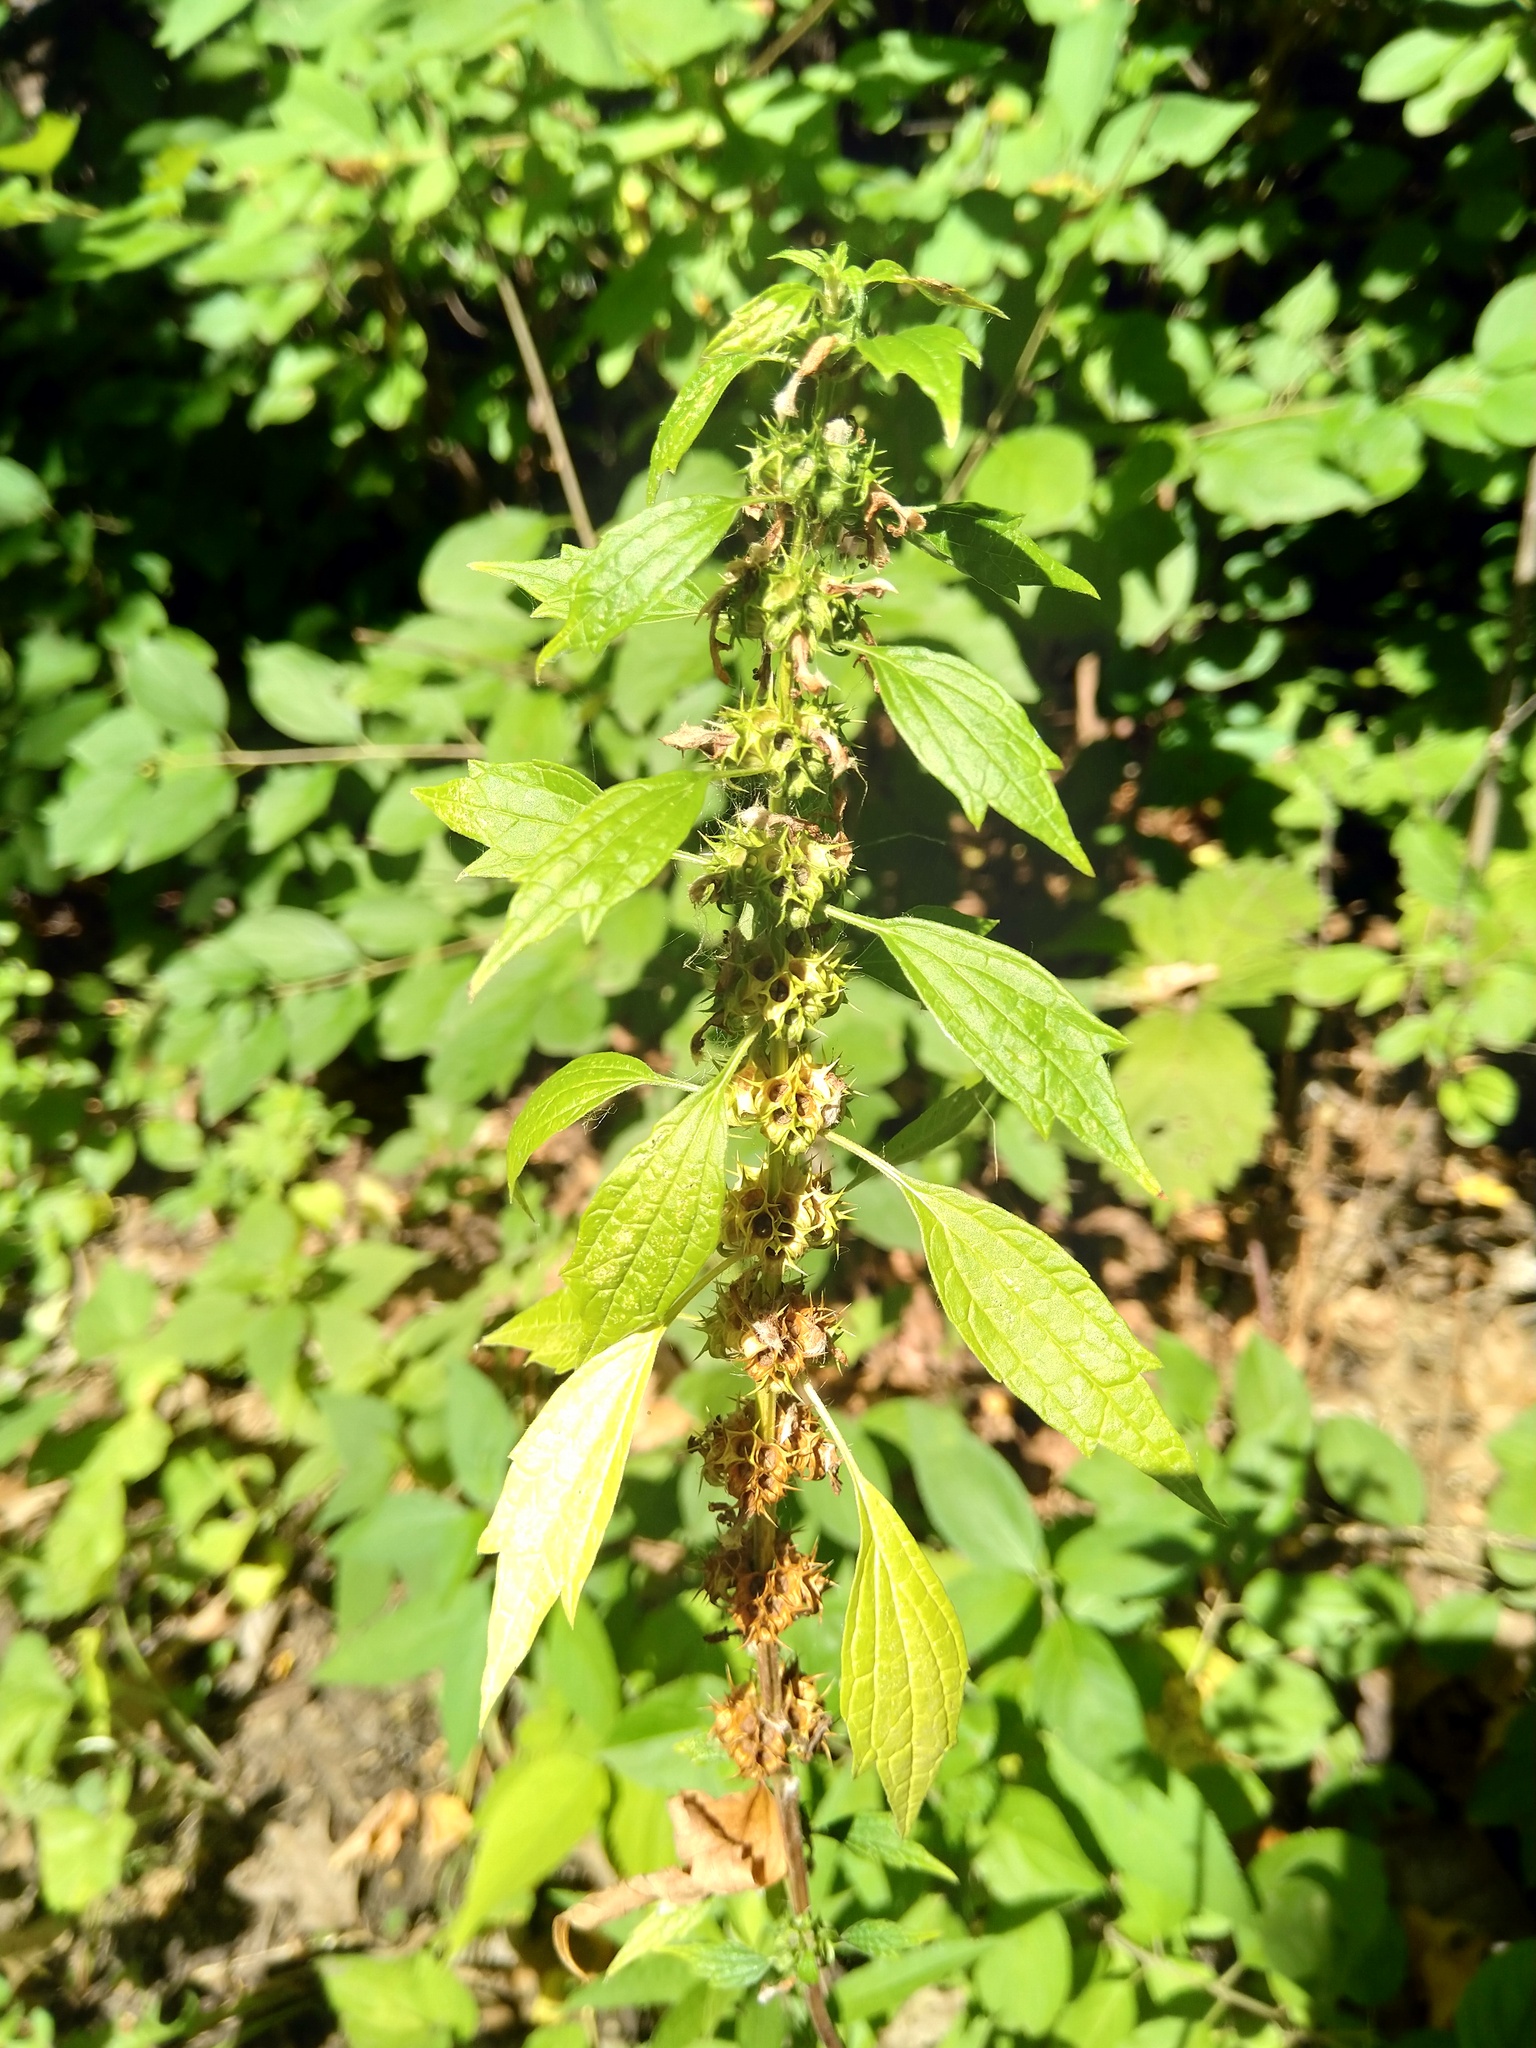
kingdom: Plantae
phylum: Tracheophyta
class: Magnoliopsida
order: Lamiales
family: Lamiaceae
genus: Leonurus
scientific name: Leonurus cardiaca
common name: Motherwort
